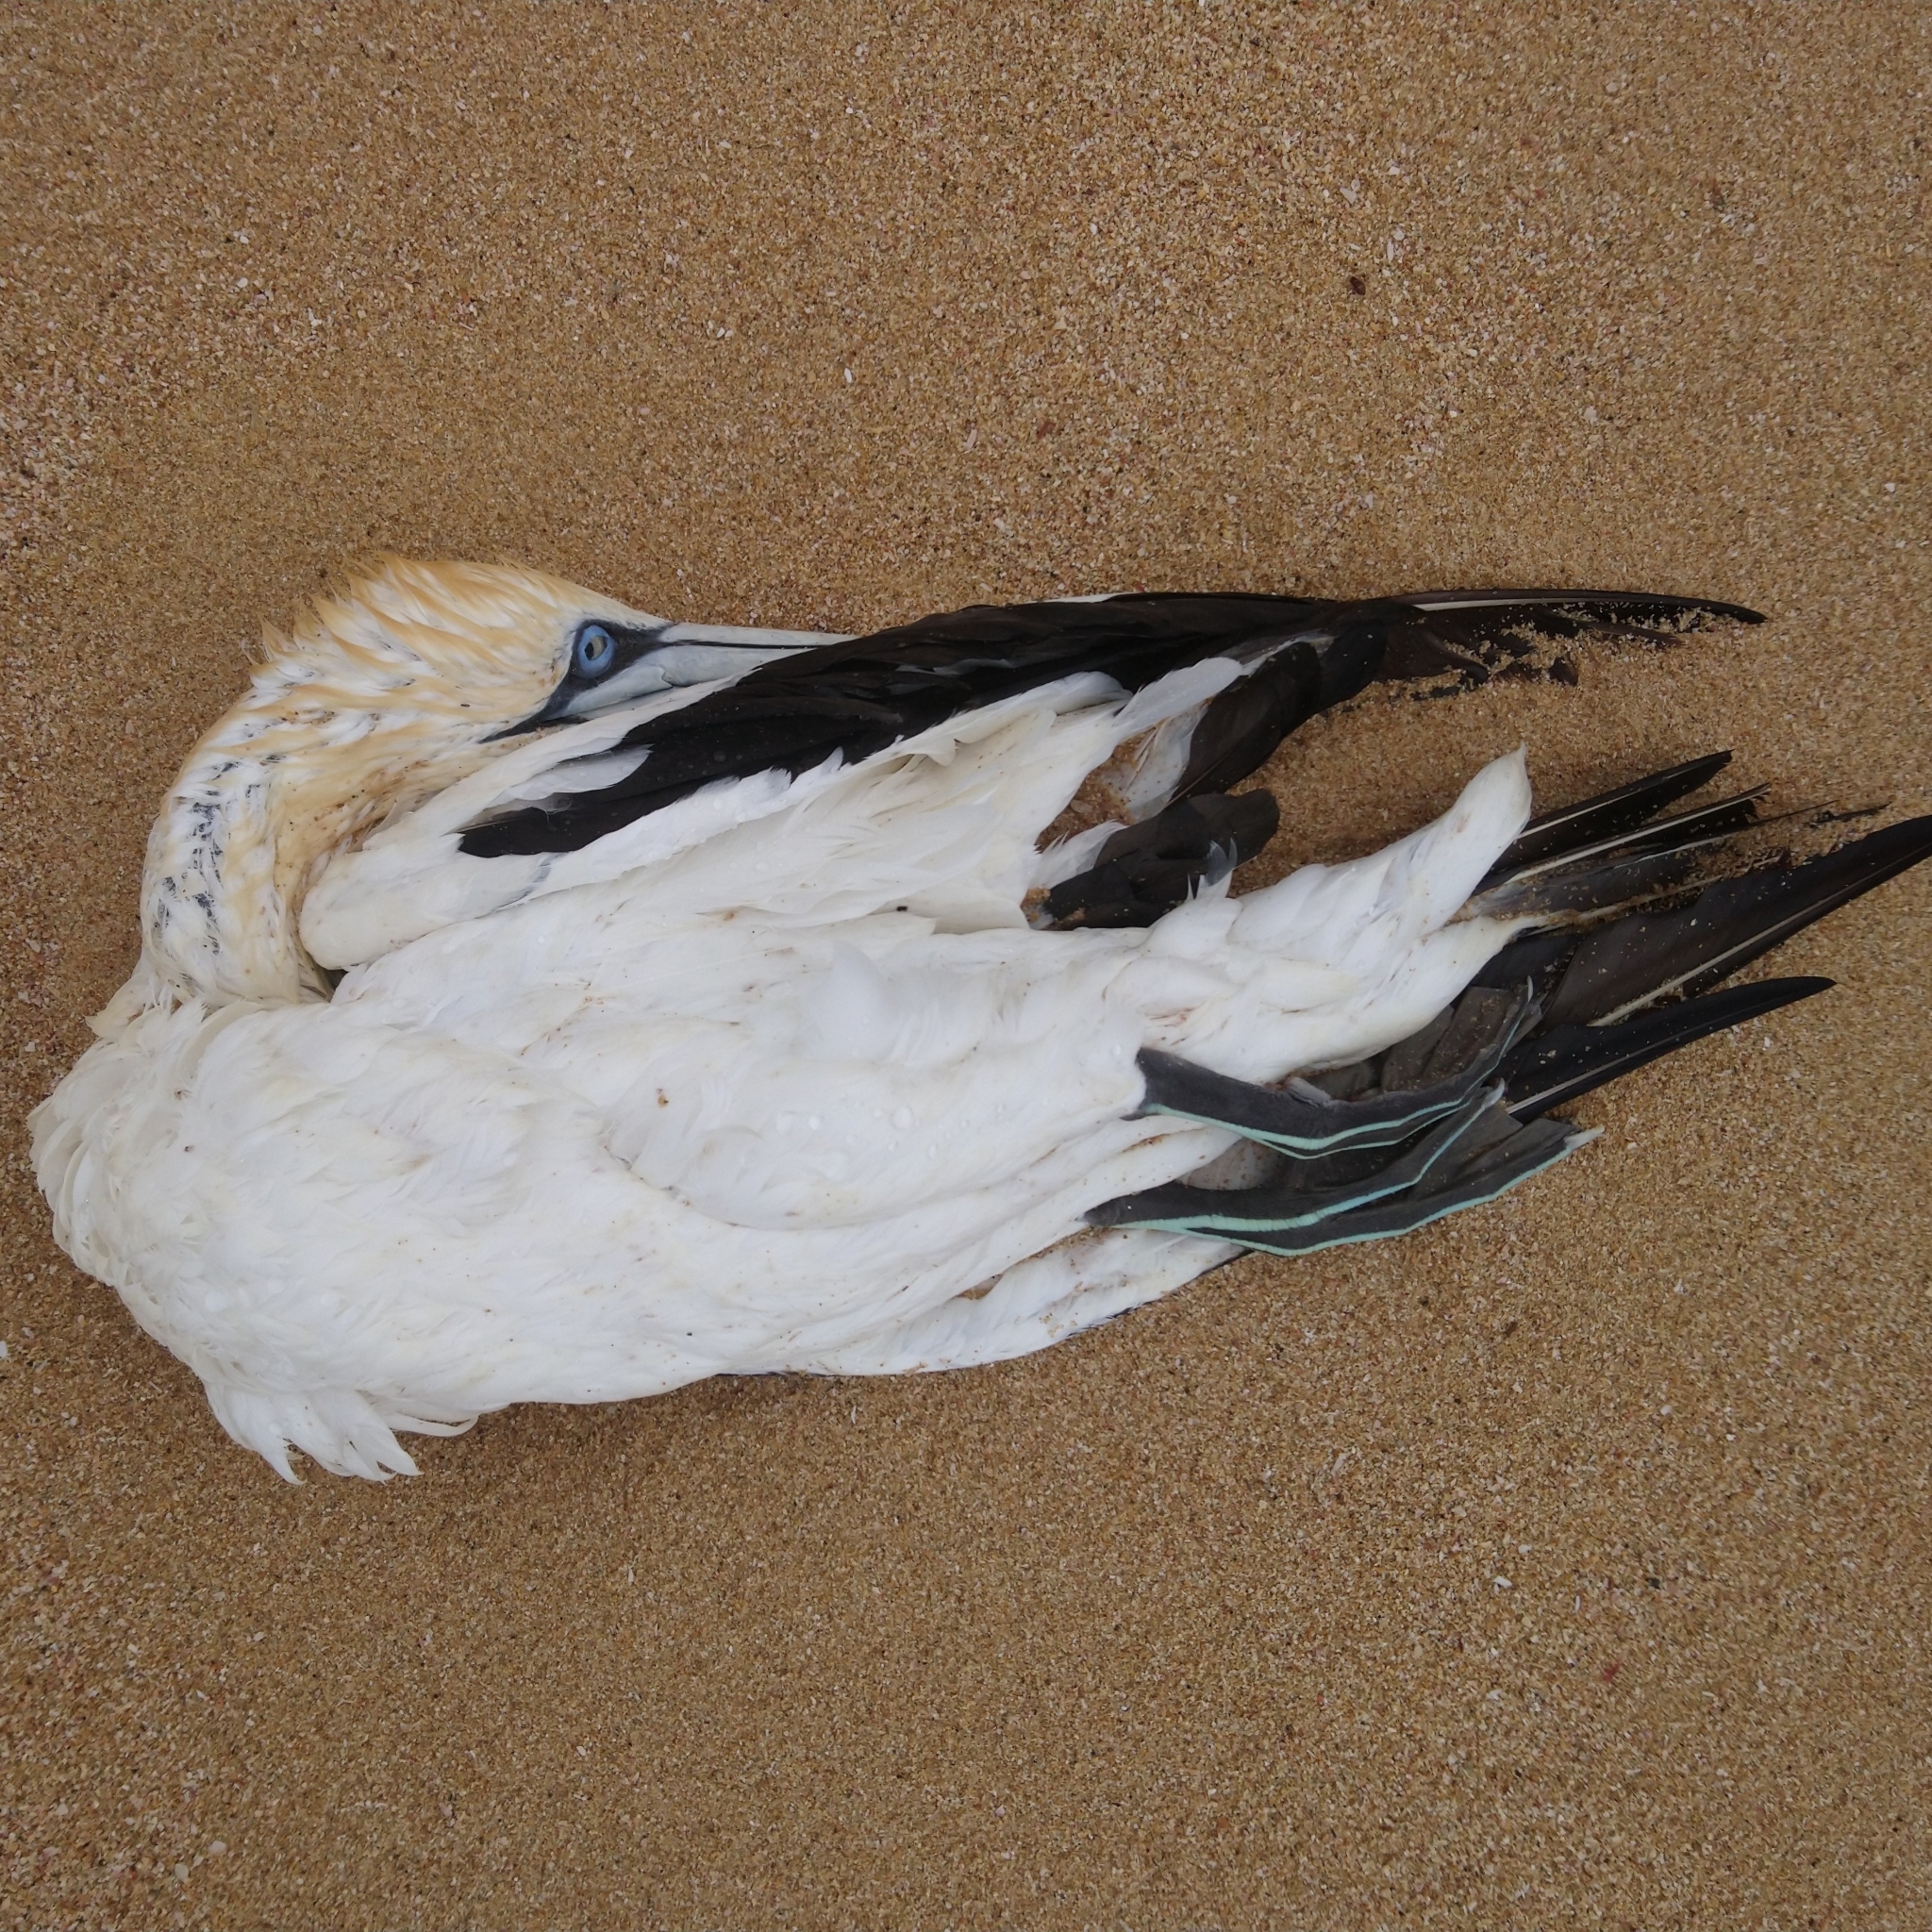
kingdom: Animalia
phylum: Chordata
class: Aves
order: Suliformes
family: Sulidae
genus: Morus
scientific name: Morus capensis
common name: Cape gannet
